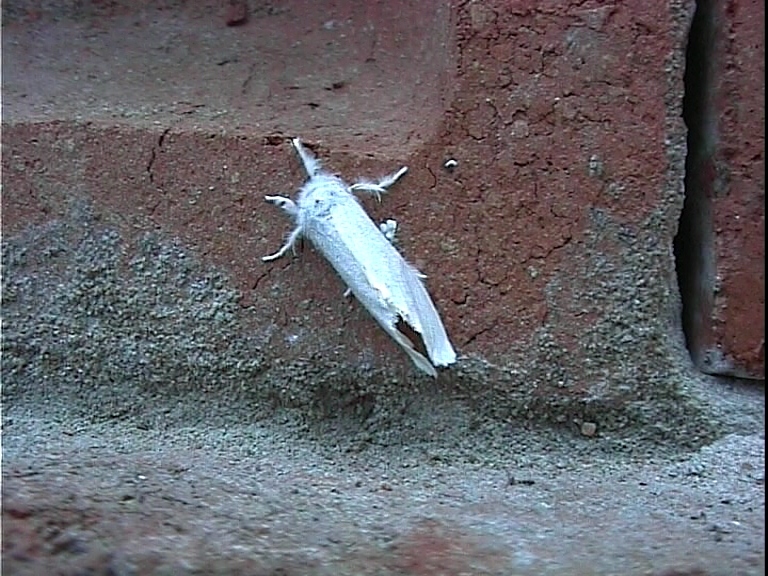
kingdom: Animalia
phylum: Arthropoda
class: Insecta
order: Lepidoptera
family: Erebidae
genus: Sphrageidus
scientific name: Sphrageidus similis
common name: Yellow-tail
